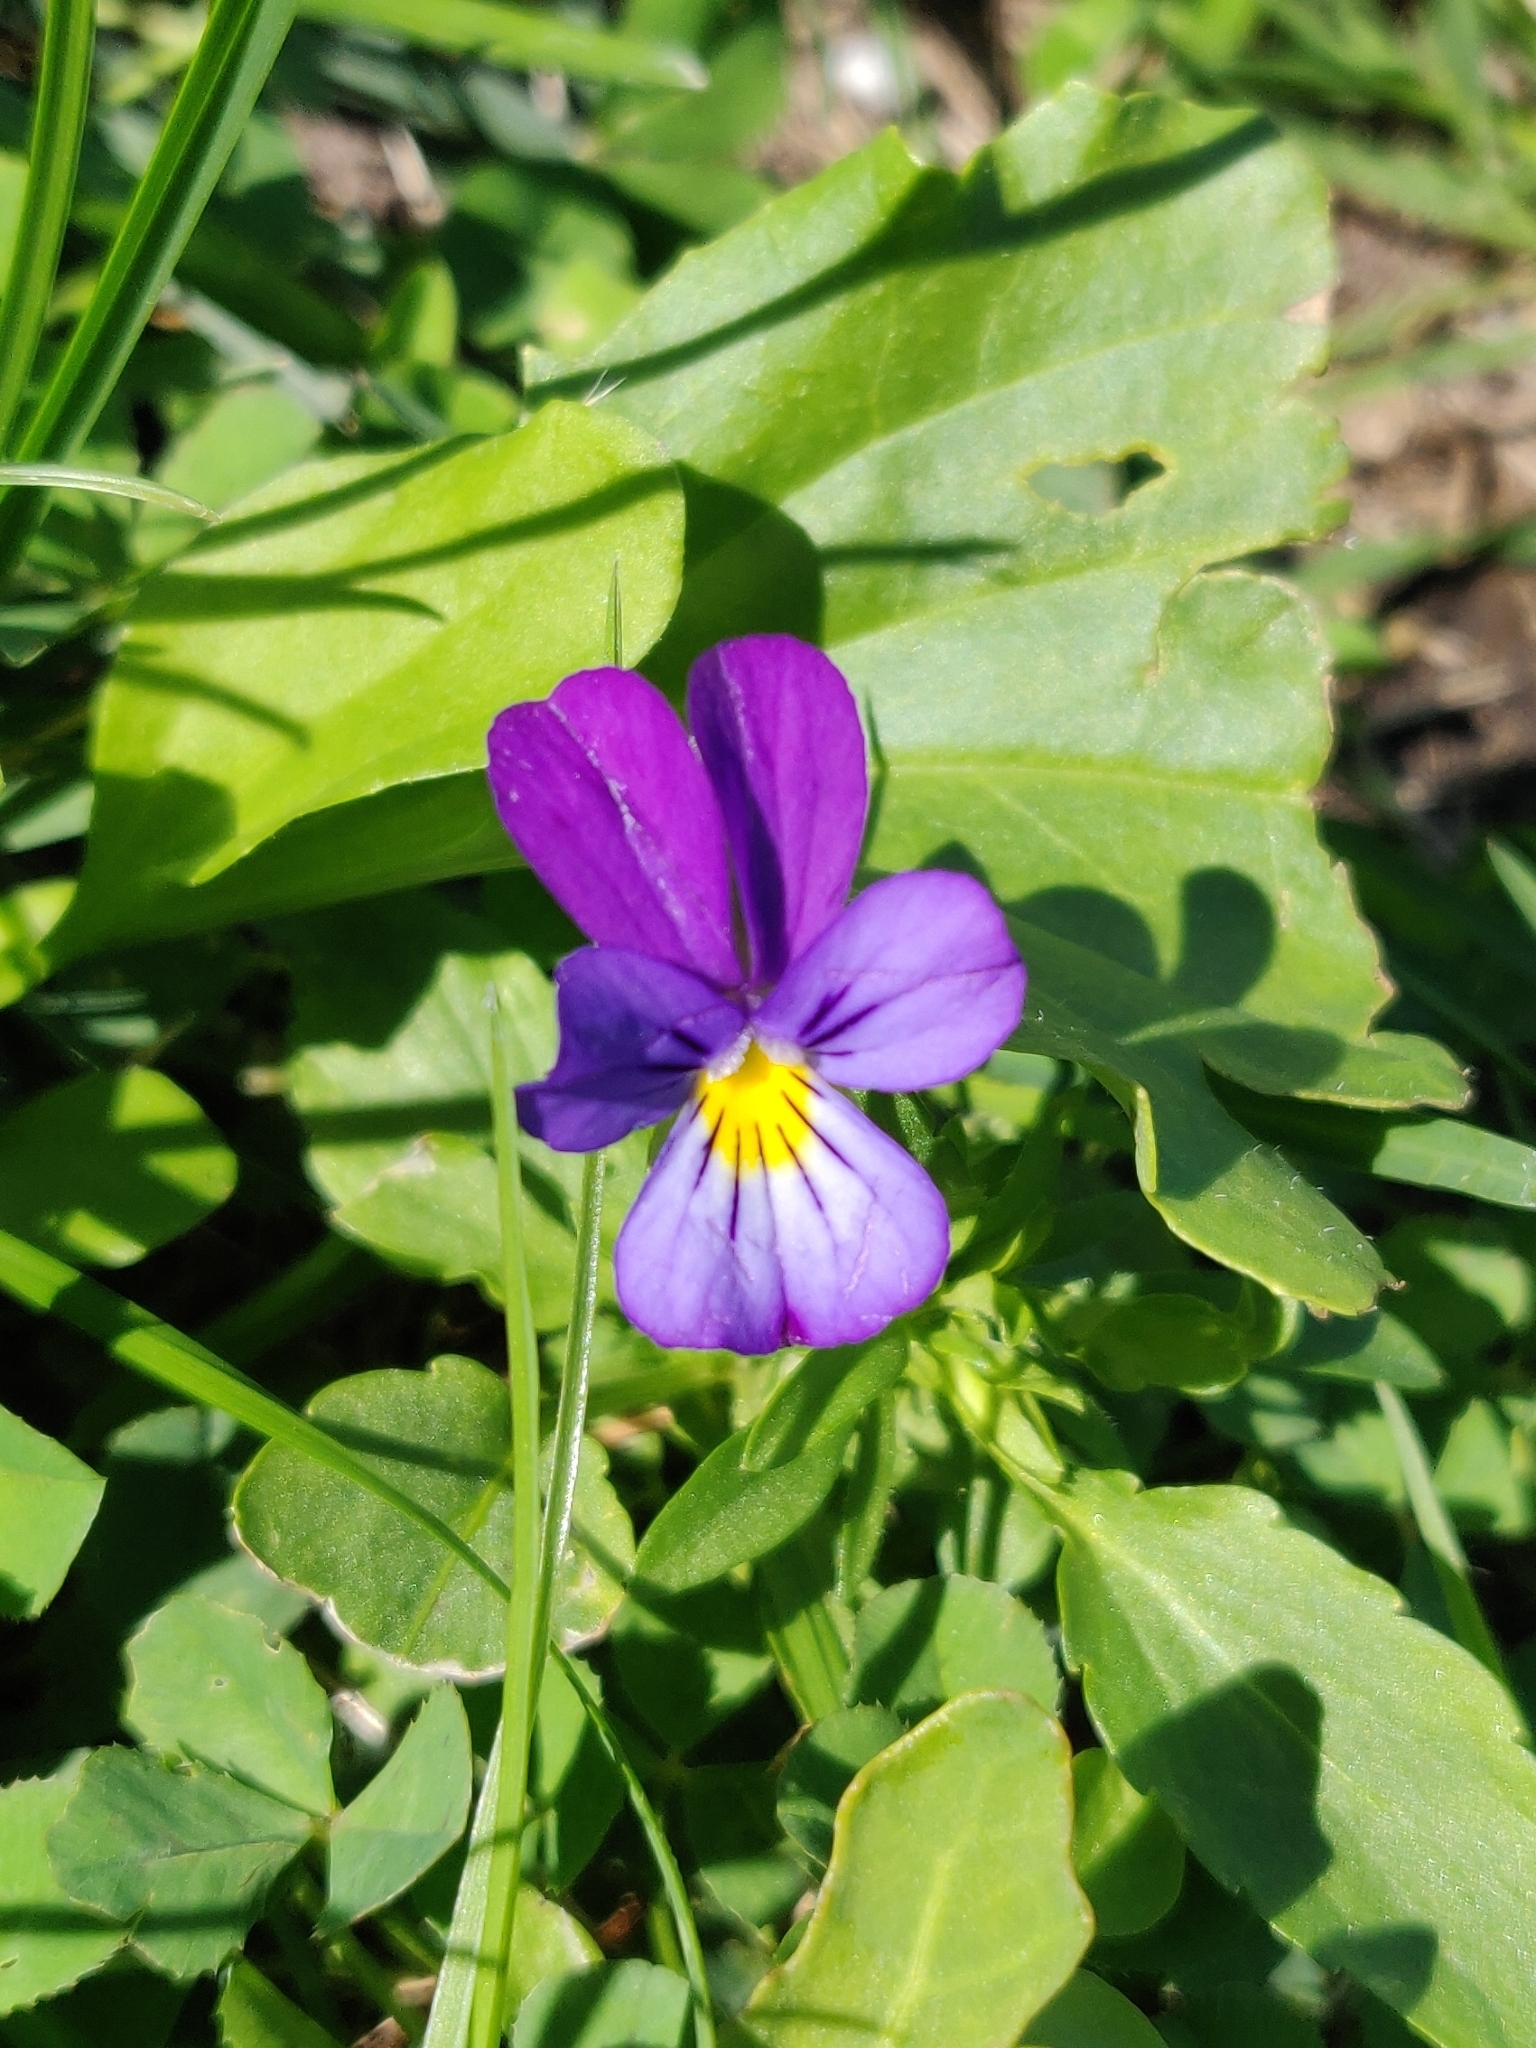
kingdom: Plantae
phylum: Tracheophyta
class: Magnoliopsida
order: Malpighiales
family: Violaceae
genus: Viola
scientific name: Viola tricolor
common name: Pansy
